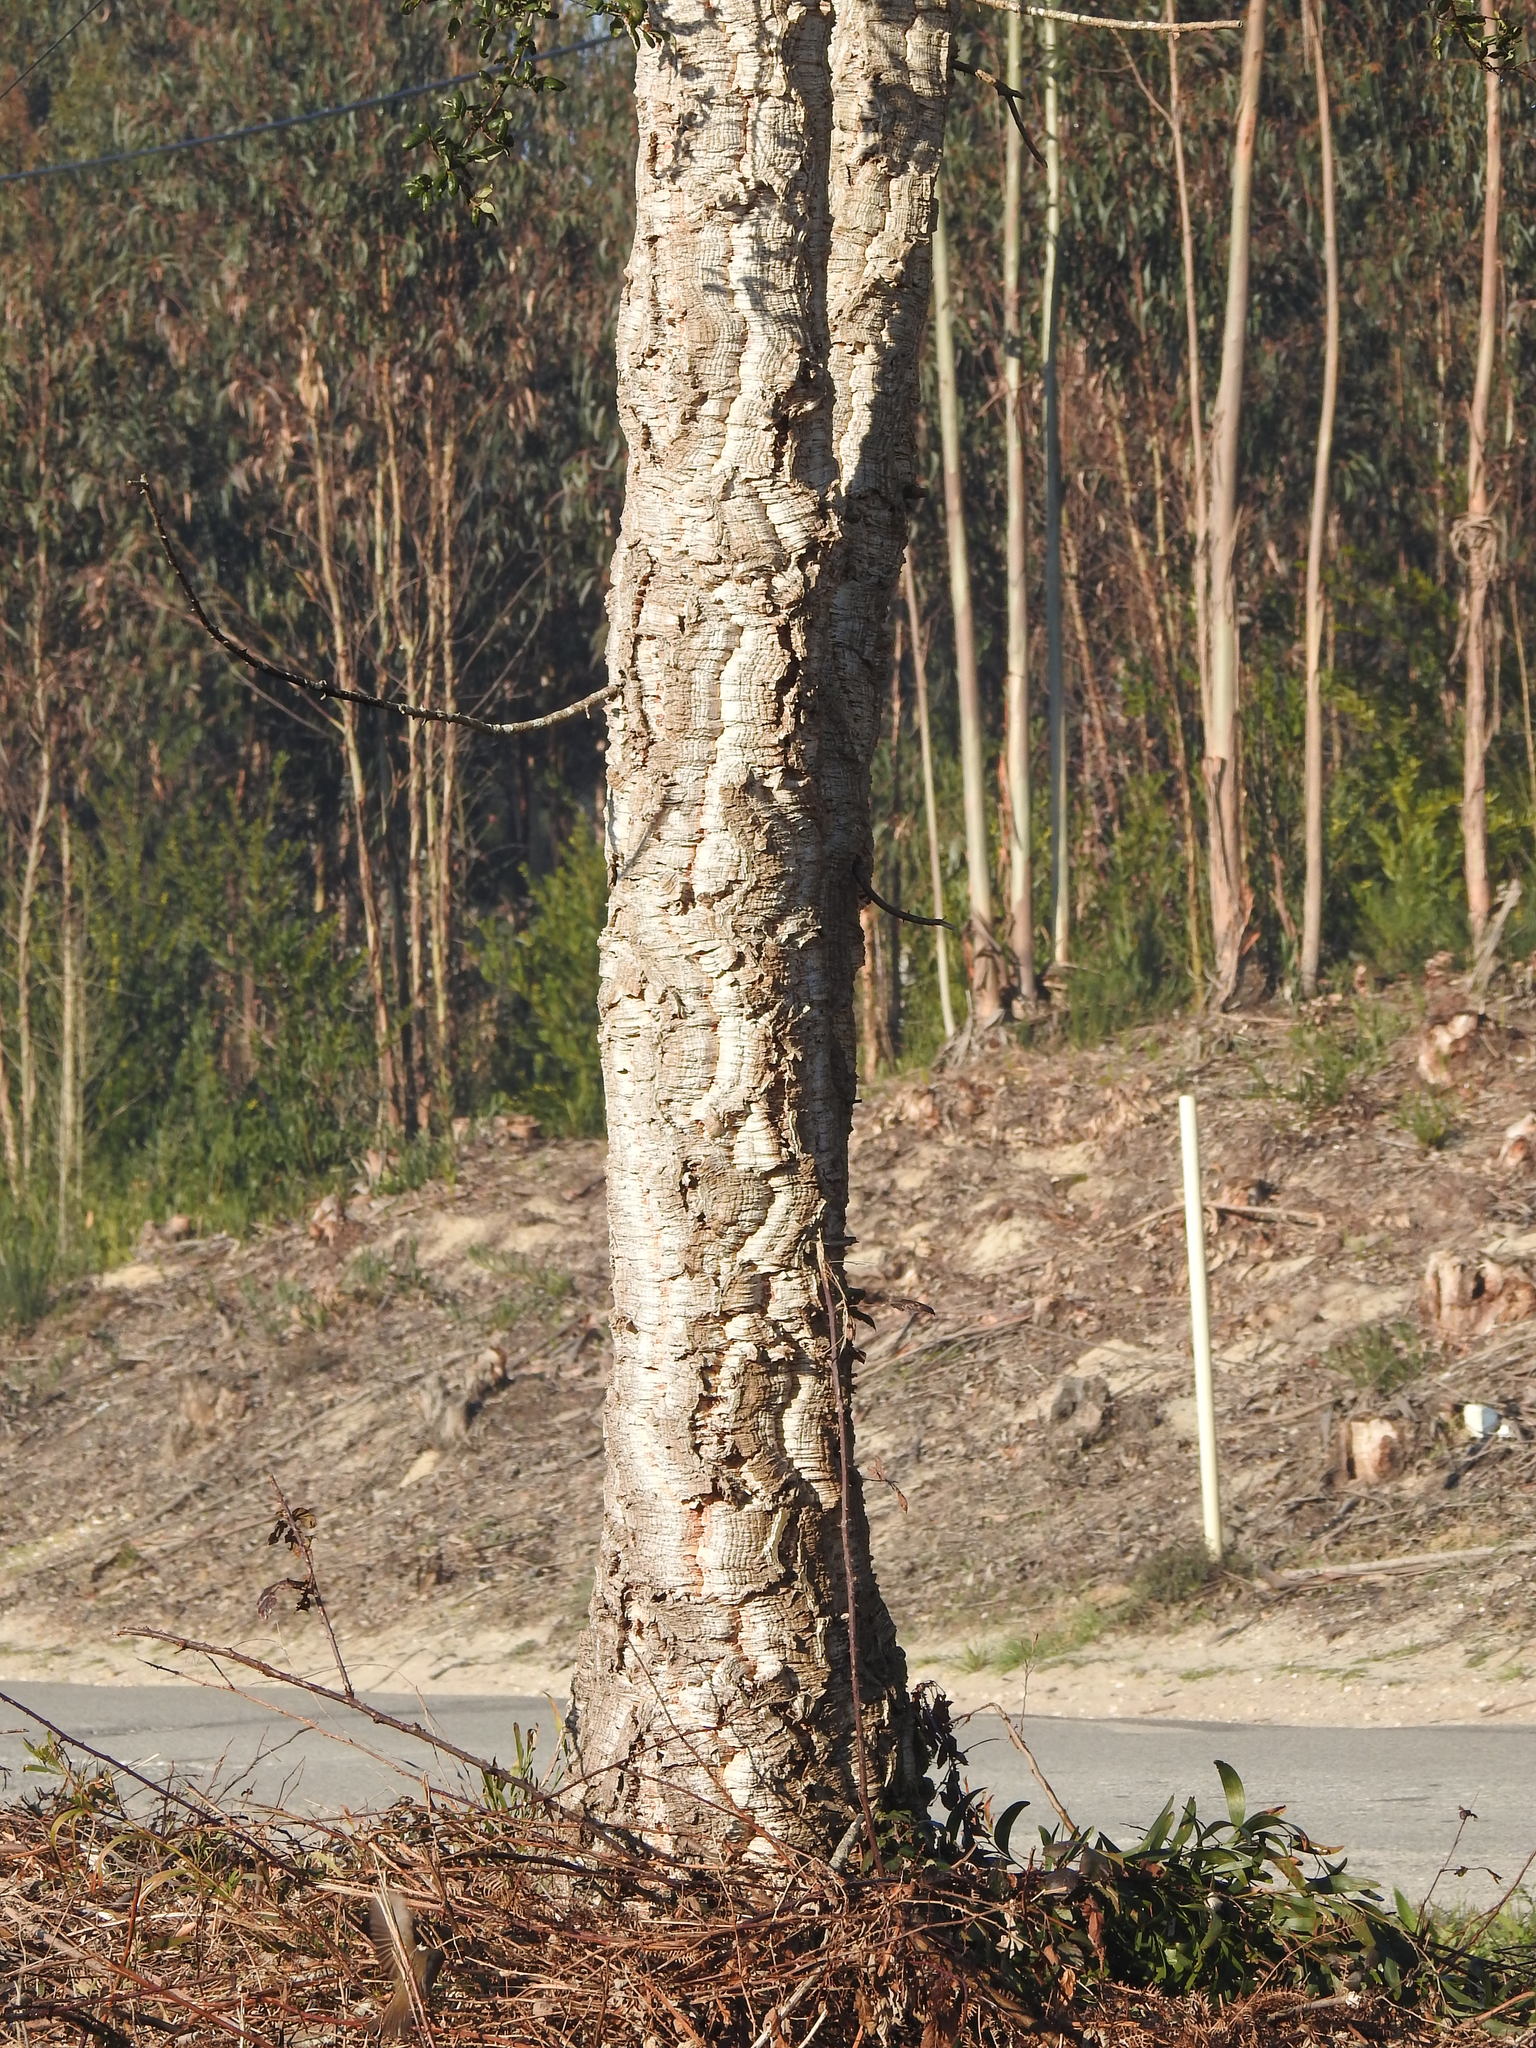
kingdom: Plantae
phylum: Tracheophyta
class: Magnoliopsida
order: Fagales
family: Fagaceae
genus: Quercus
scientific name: Quercus suber
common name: Cork oak
